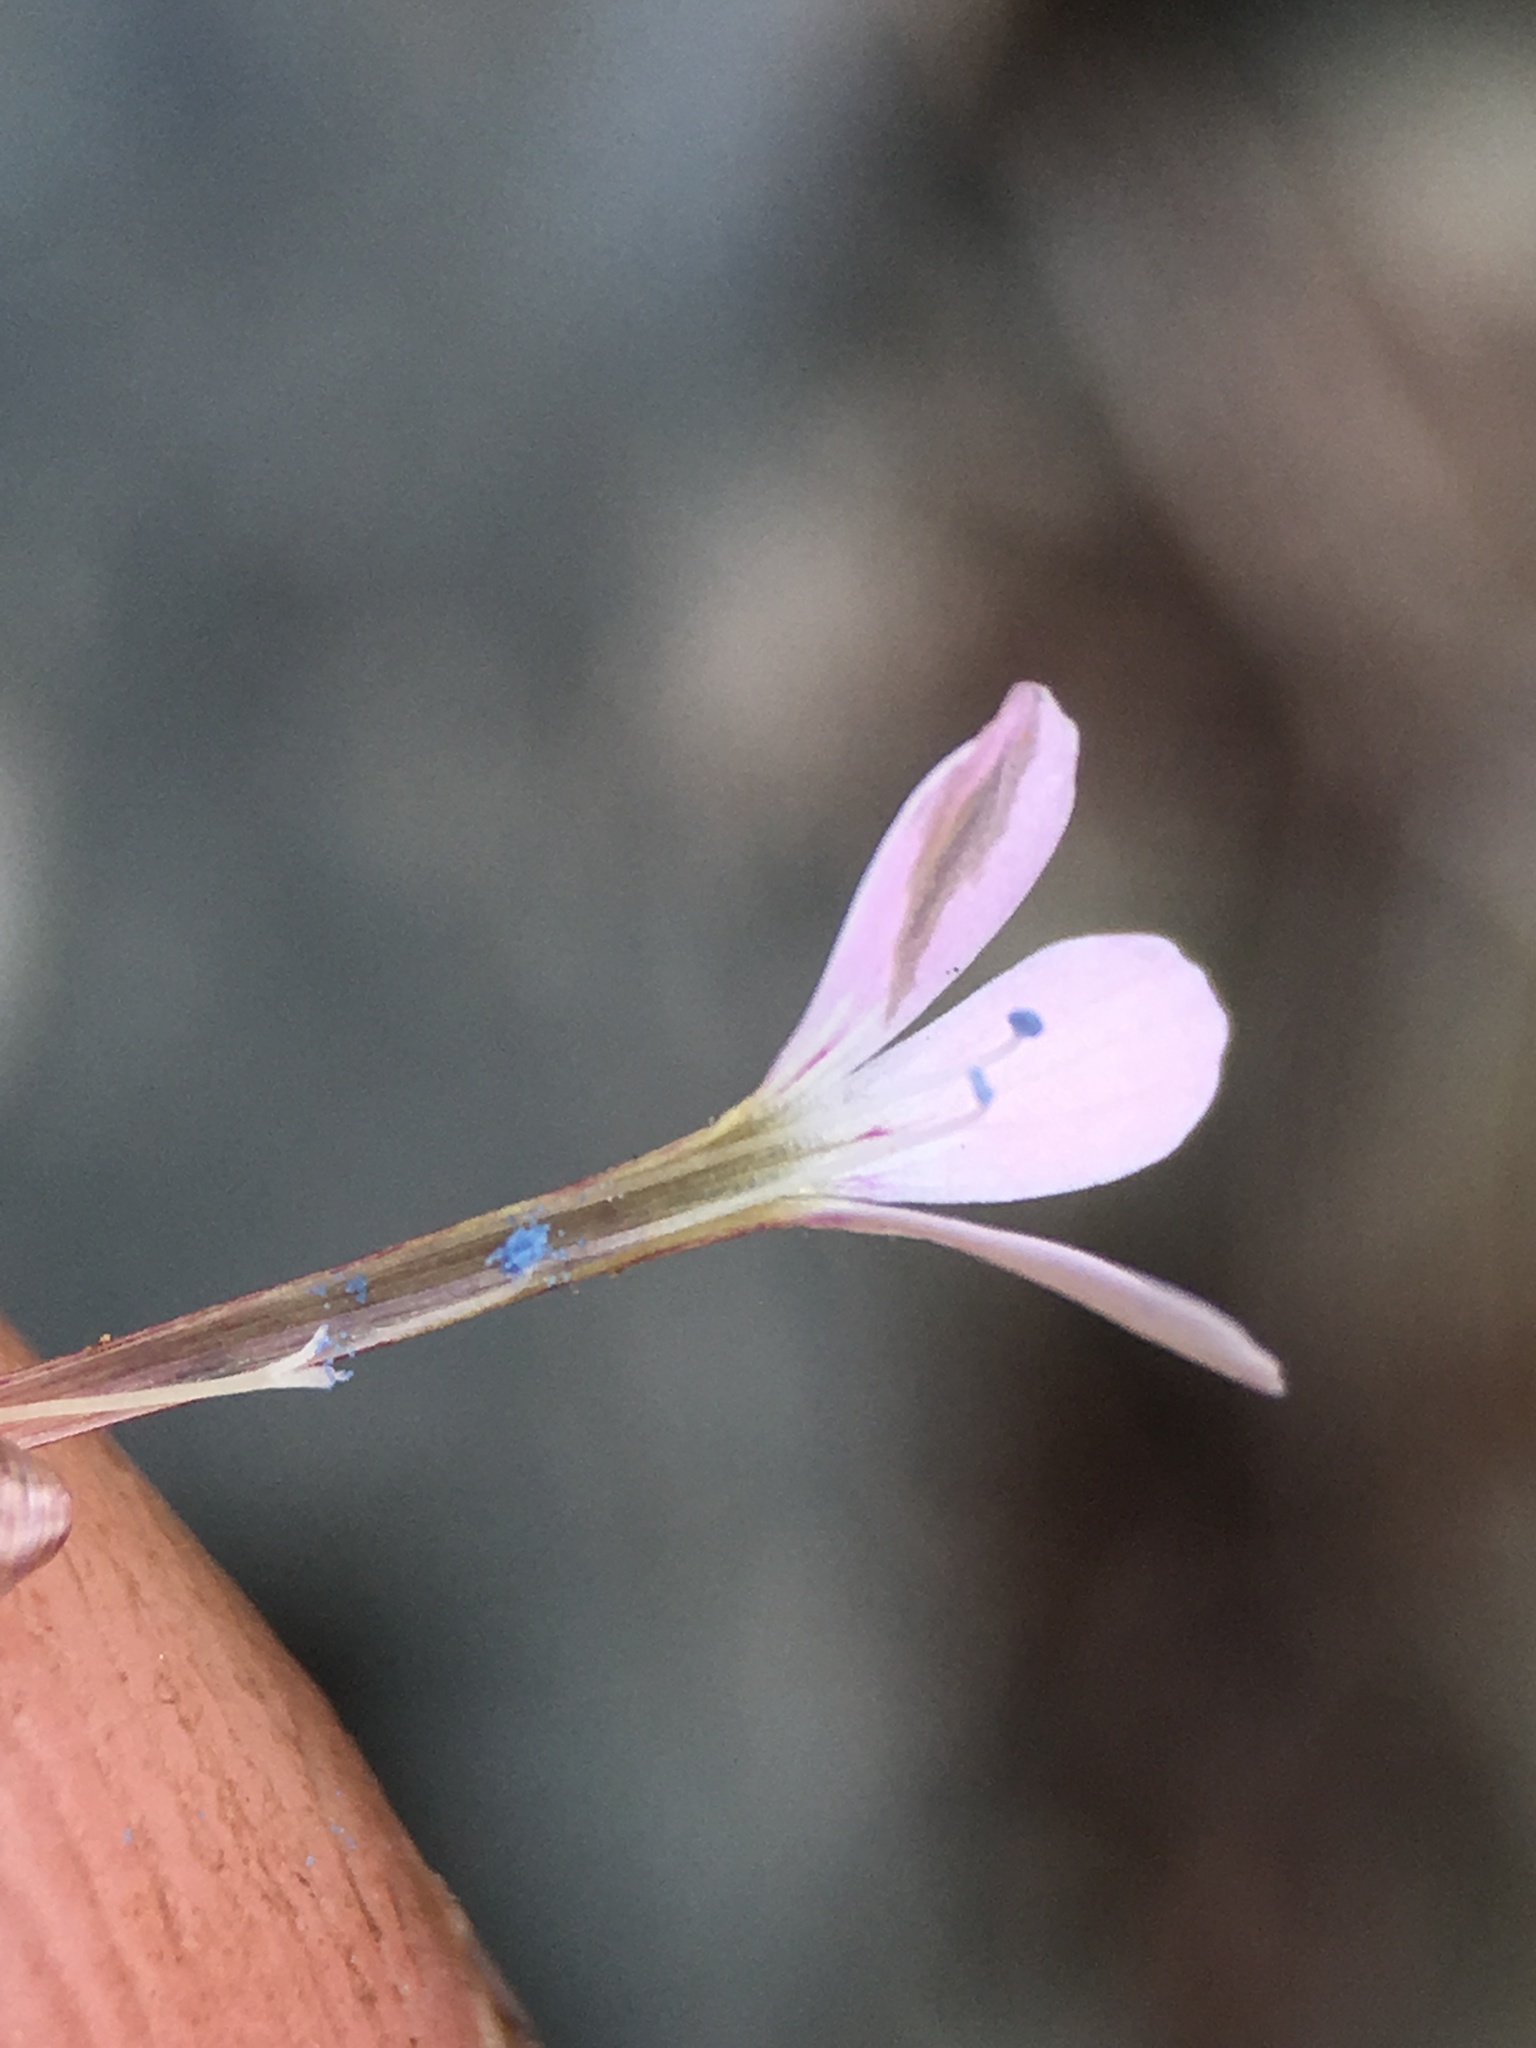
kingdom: Plantae
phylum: Tracheophyta
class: Magnoliopsida
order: Ericales
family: Polemoniaceae
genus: Collomia
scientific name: Collomia tracyi
